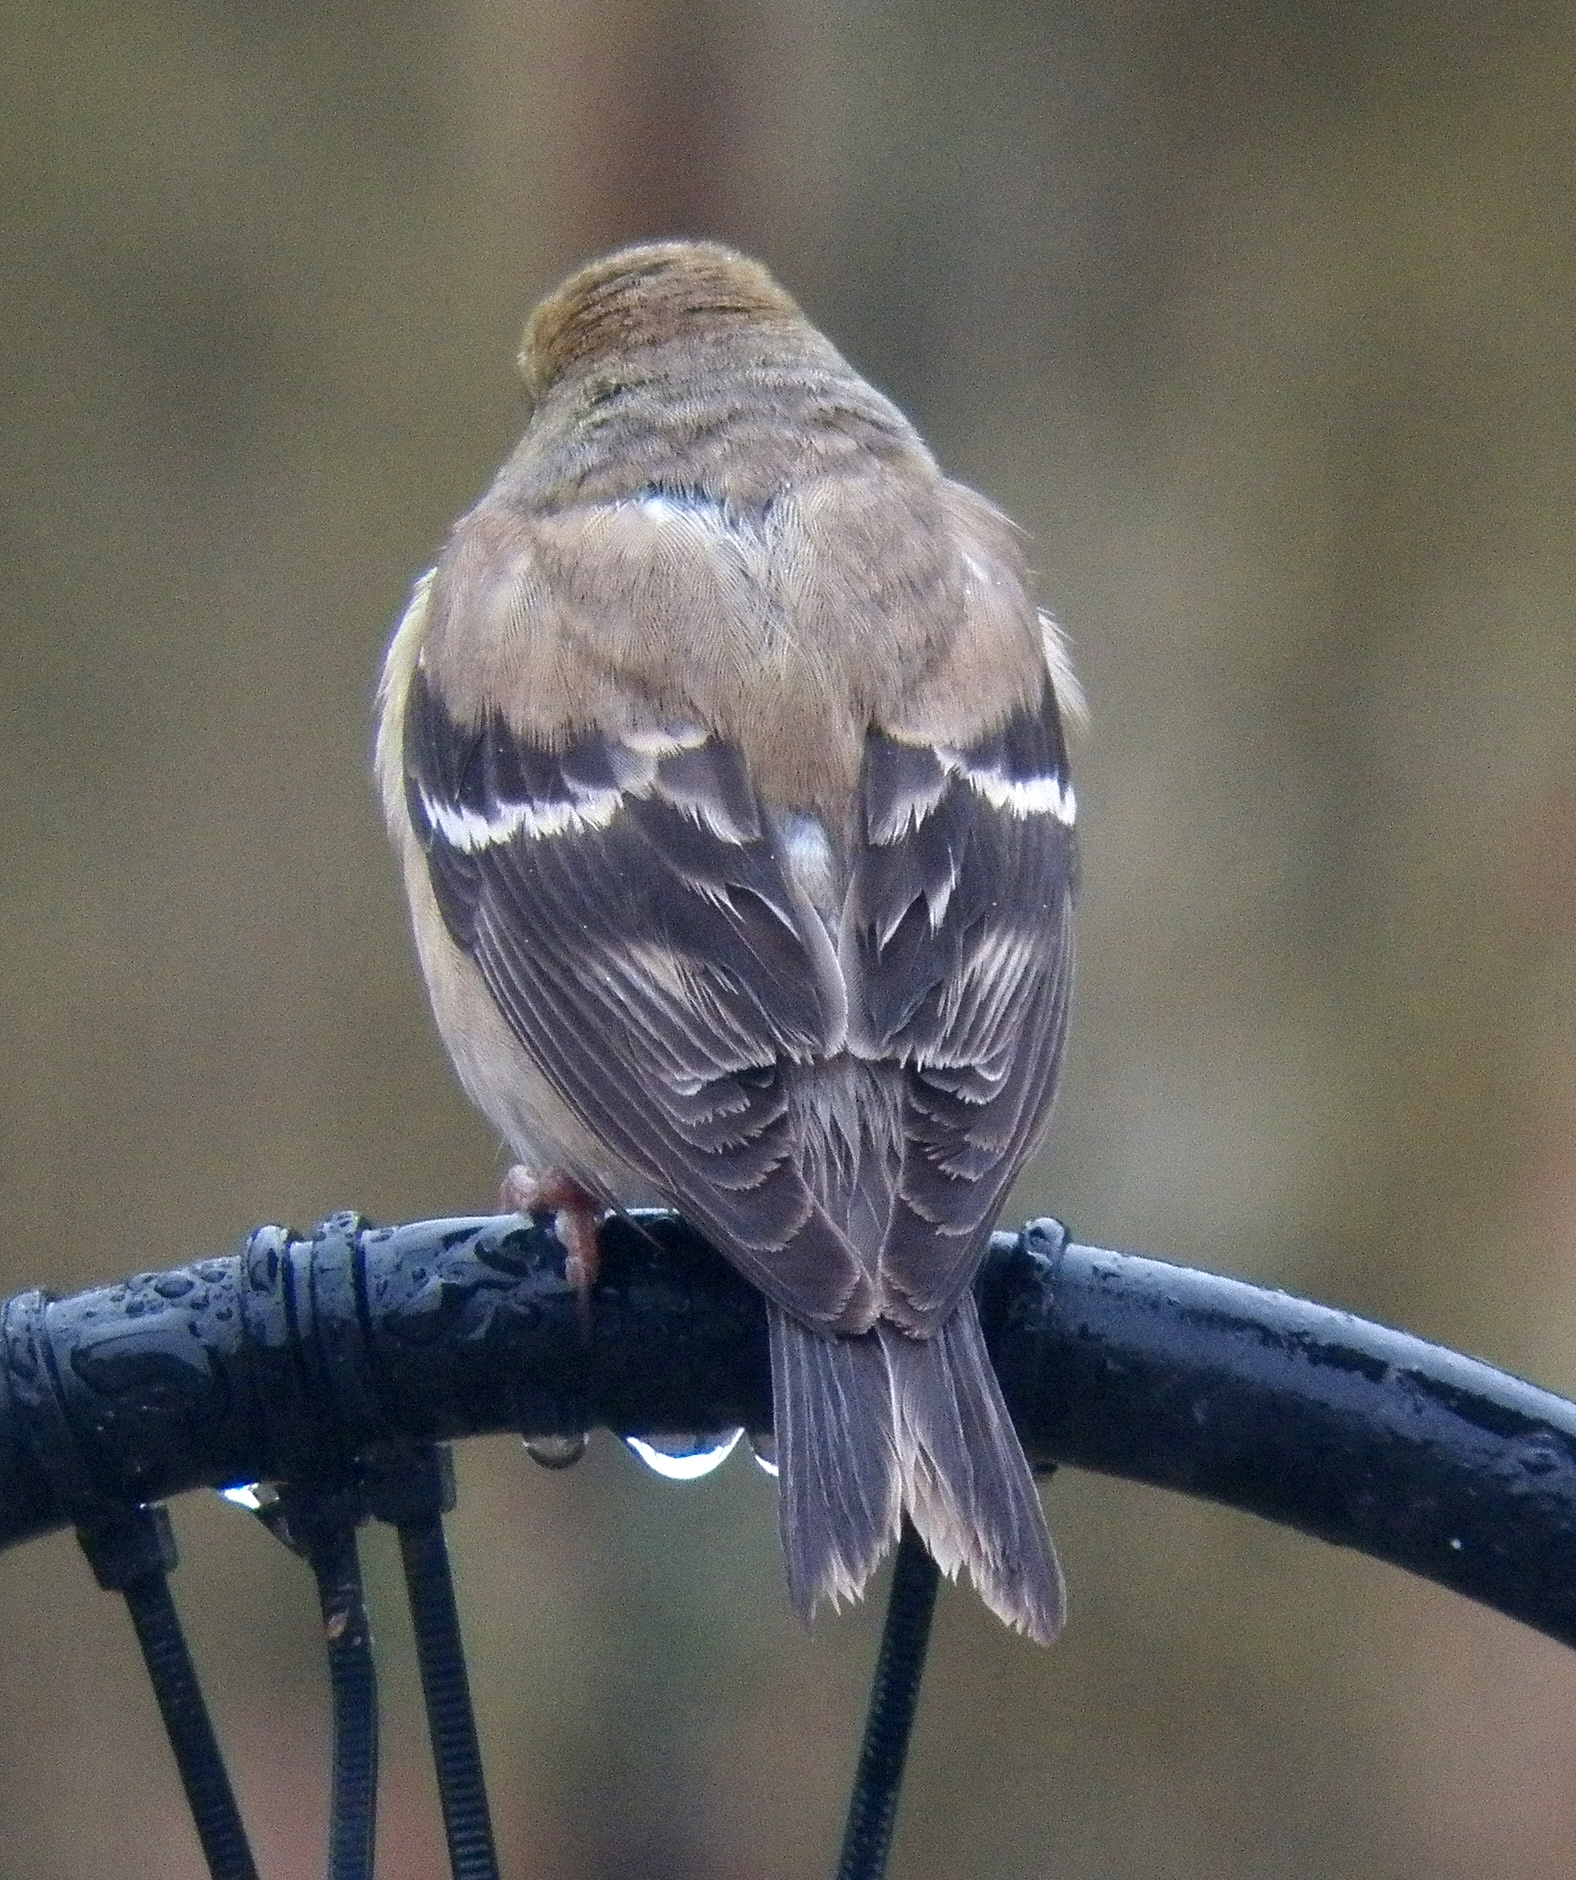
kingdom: Animalia
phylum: Chordata
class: Aves
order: Passeriformes
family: Fringillidae
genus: Spinus
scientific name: Spinus tristis
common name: American goldfinch
